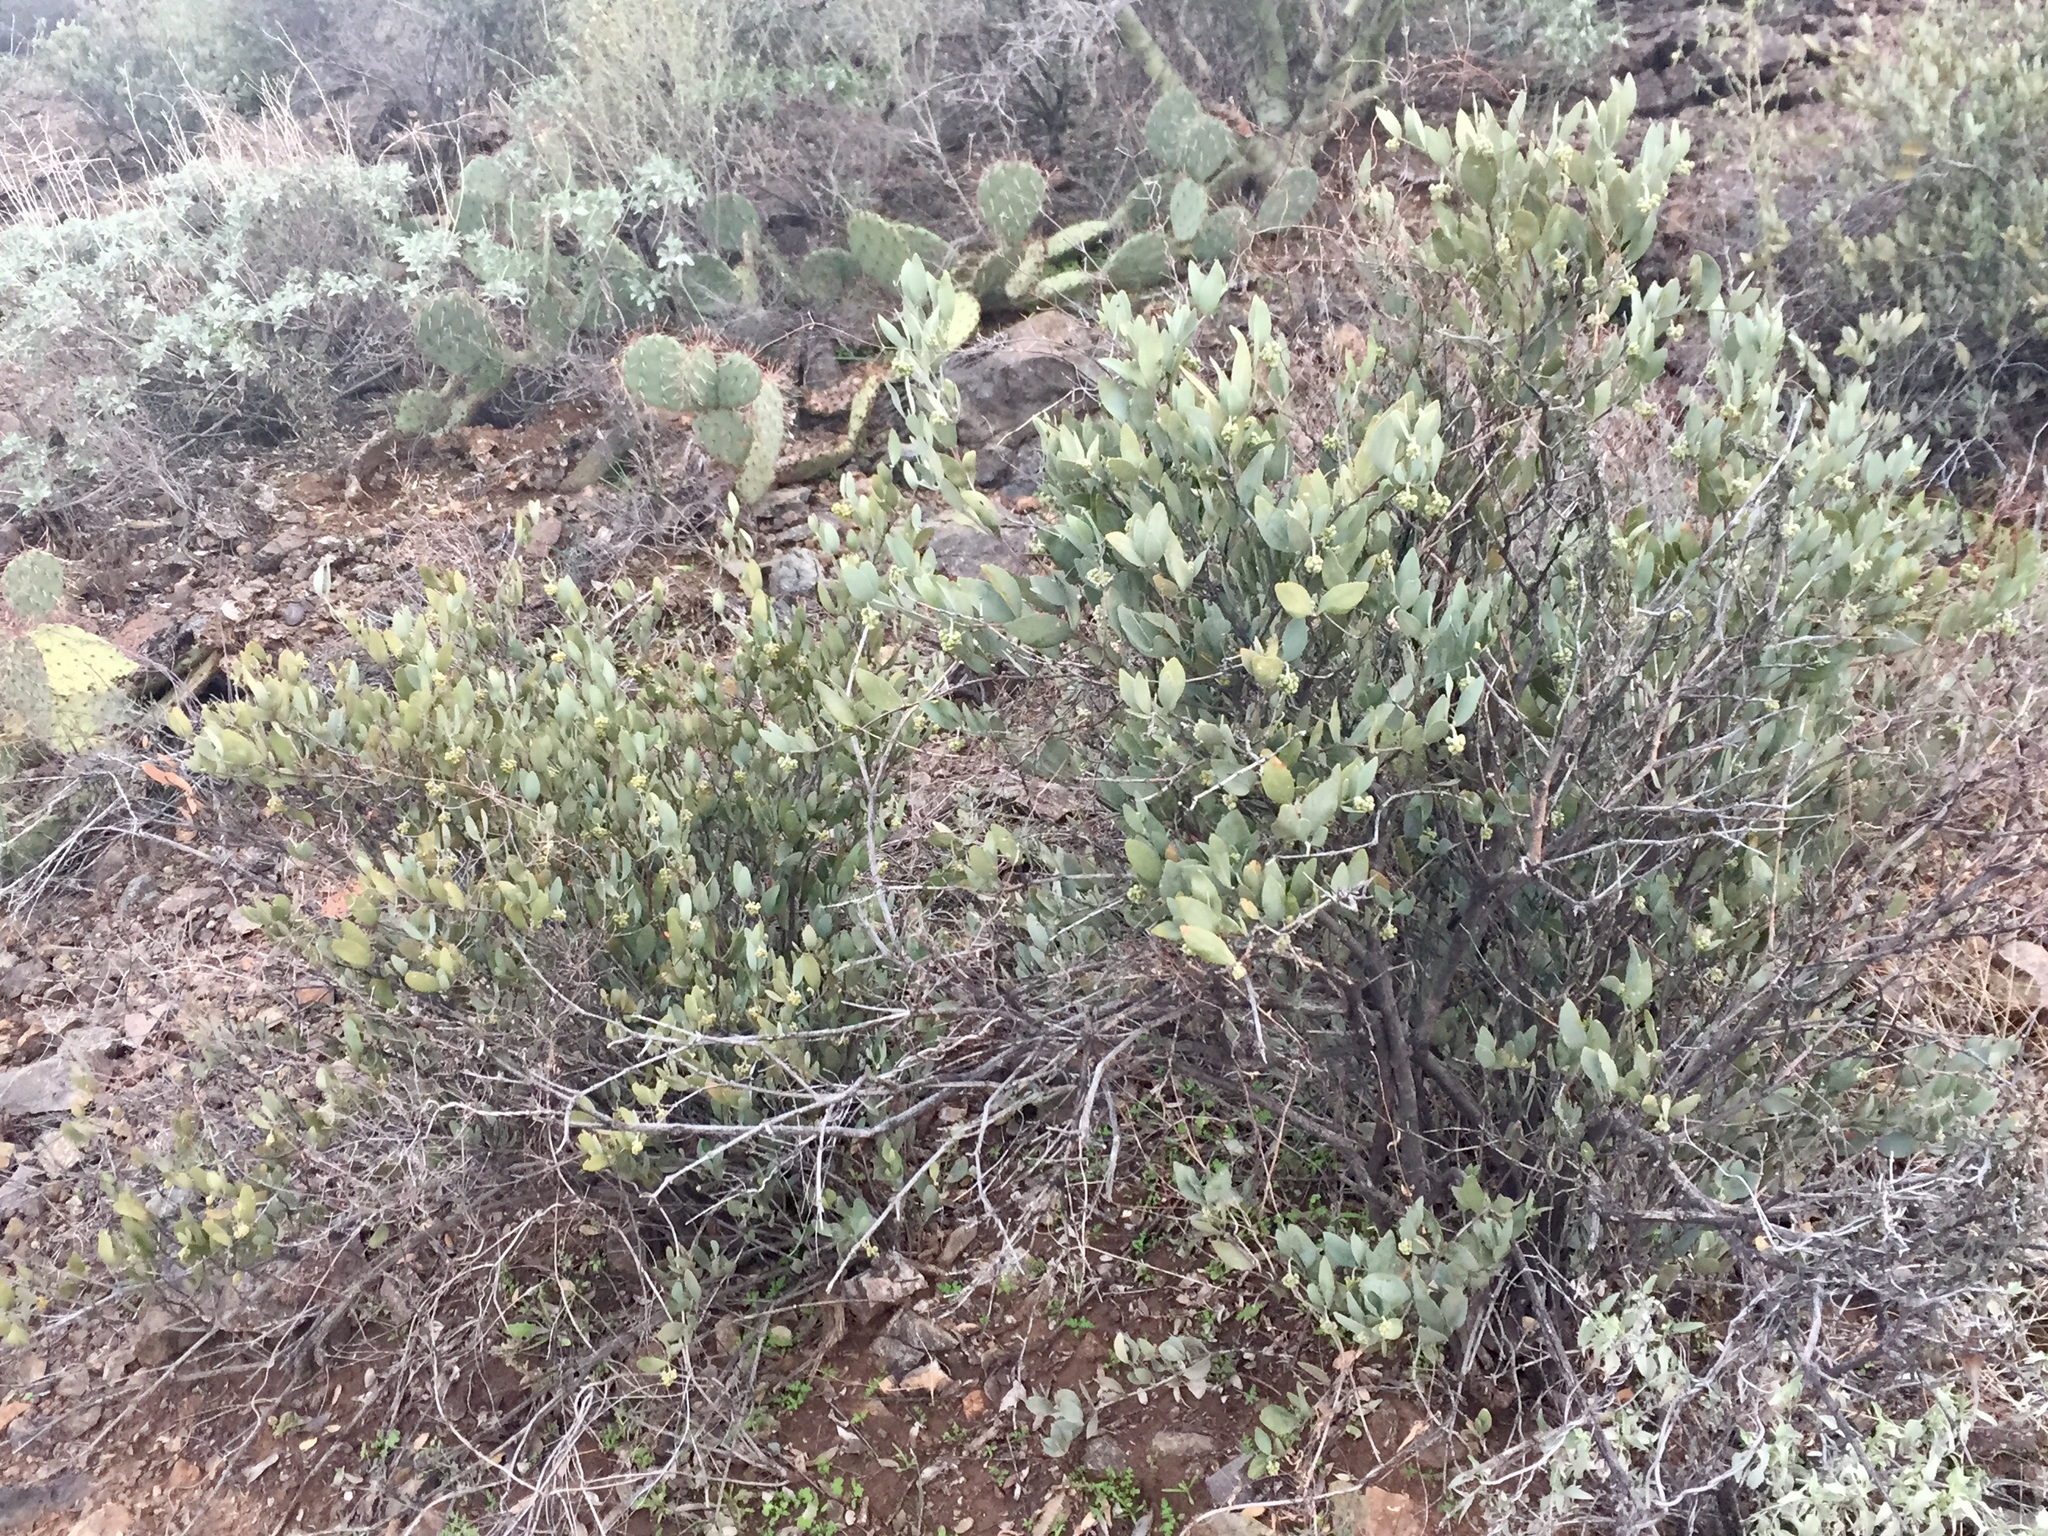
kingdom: Plantae
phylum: Tracheophyta
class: Magnoliopsida
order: Caryophyllales
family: Simmondsiaceae
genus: Simmondsia
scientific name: Simmondsia chinensis
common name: Jojoba
